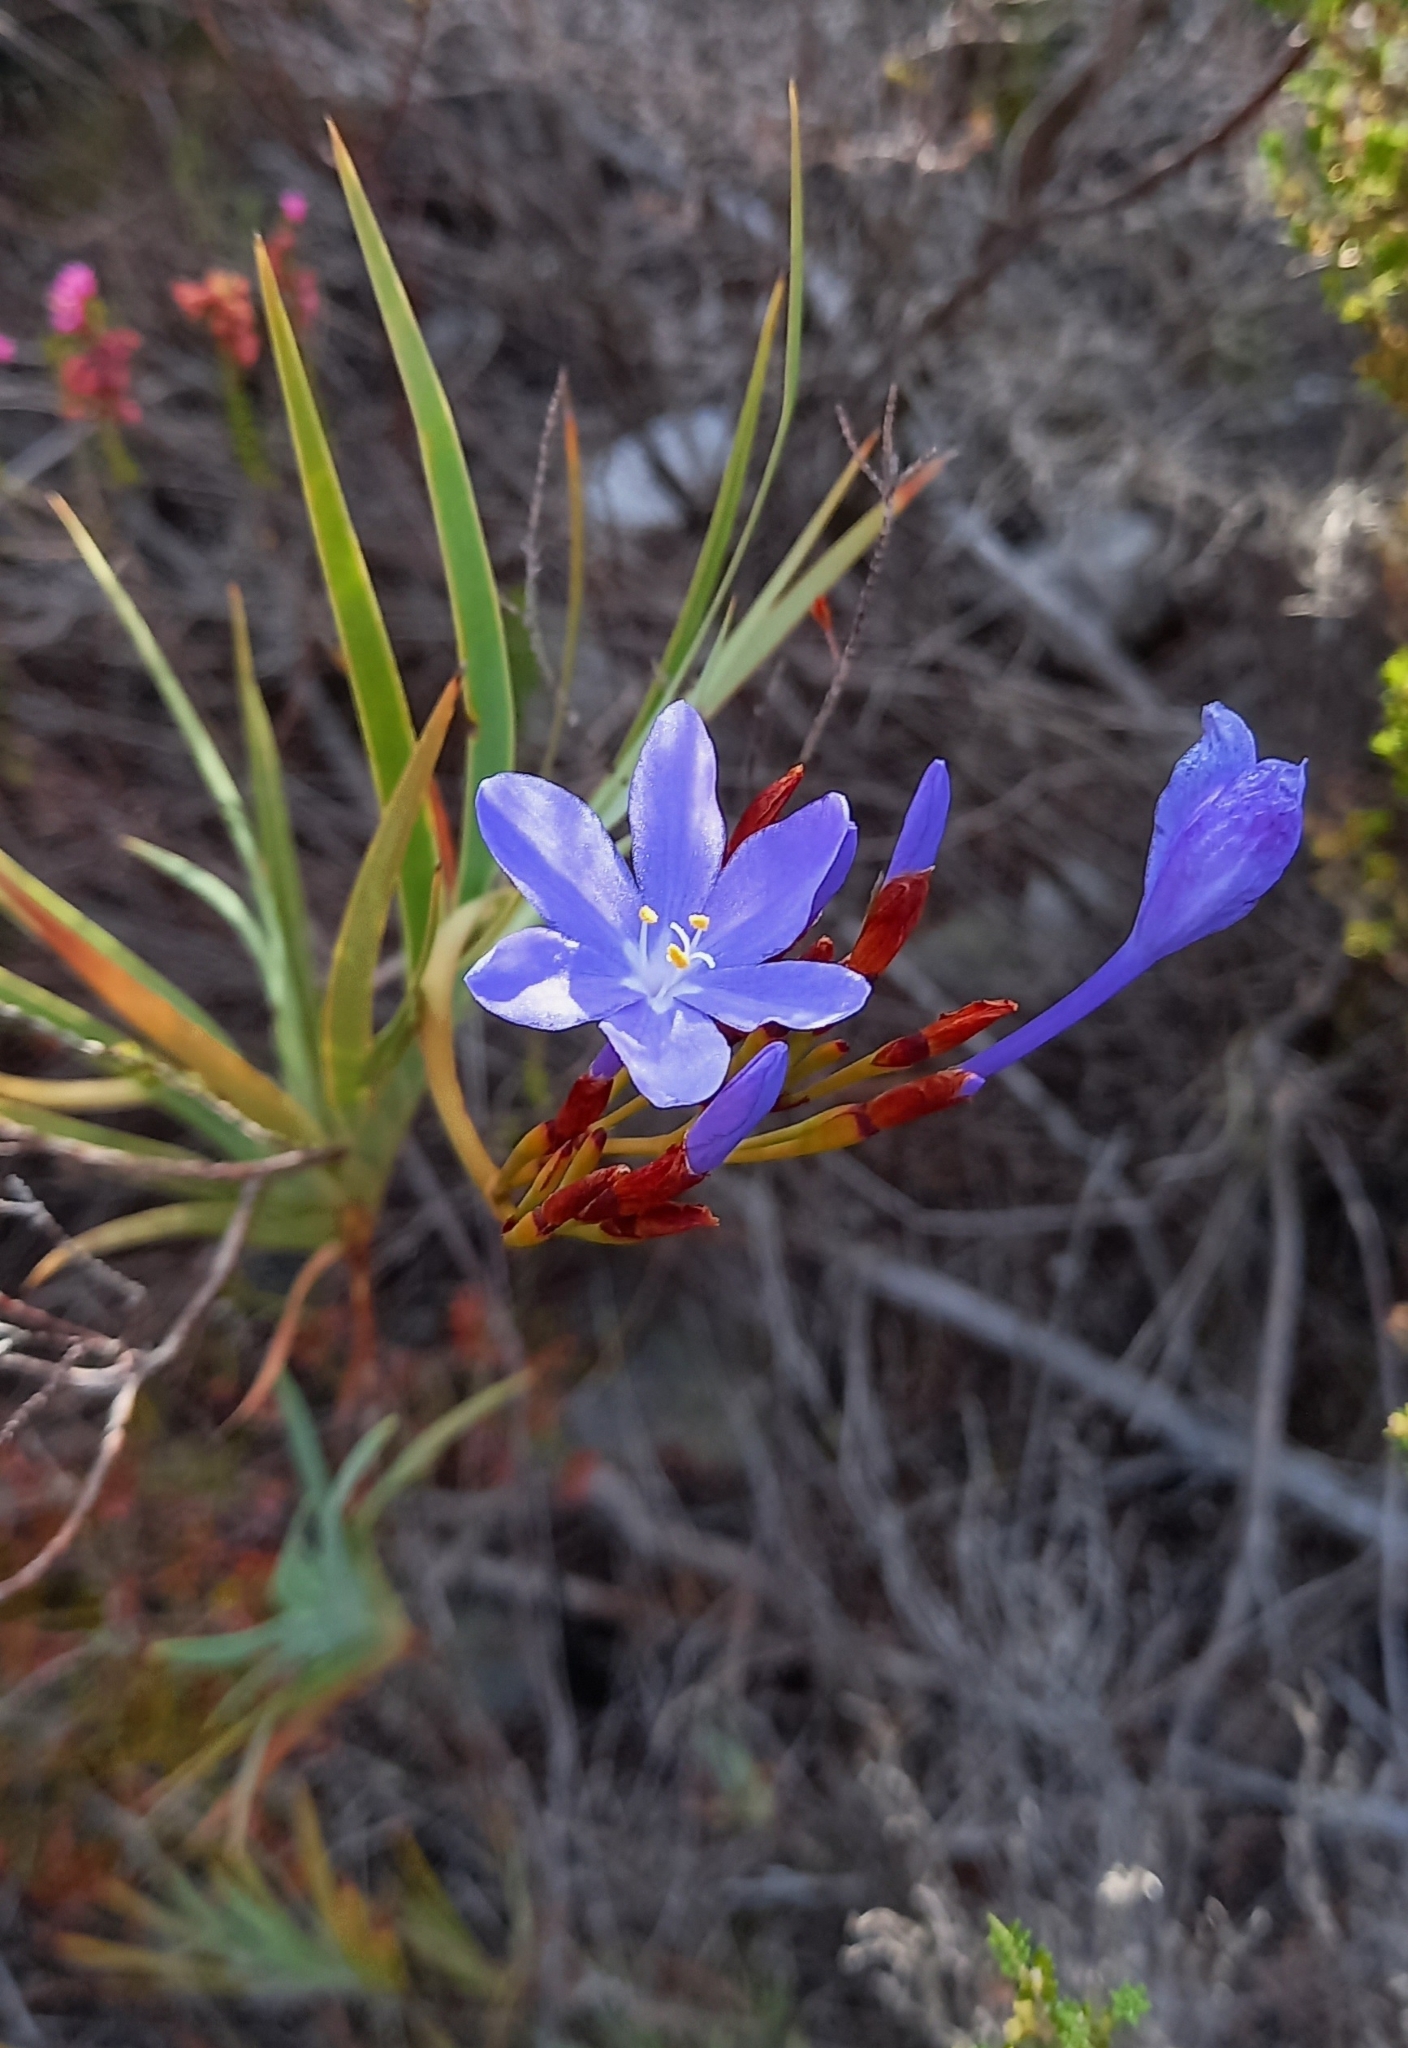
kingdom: Plantae
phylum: Tracheophyta
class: Liliopsida
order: Asparagales
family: Iridaceae
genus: Nivenia
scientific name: Nivenia stokoei
